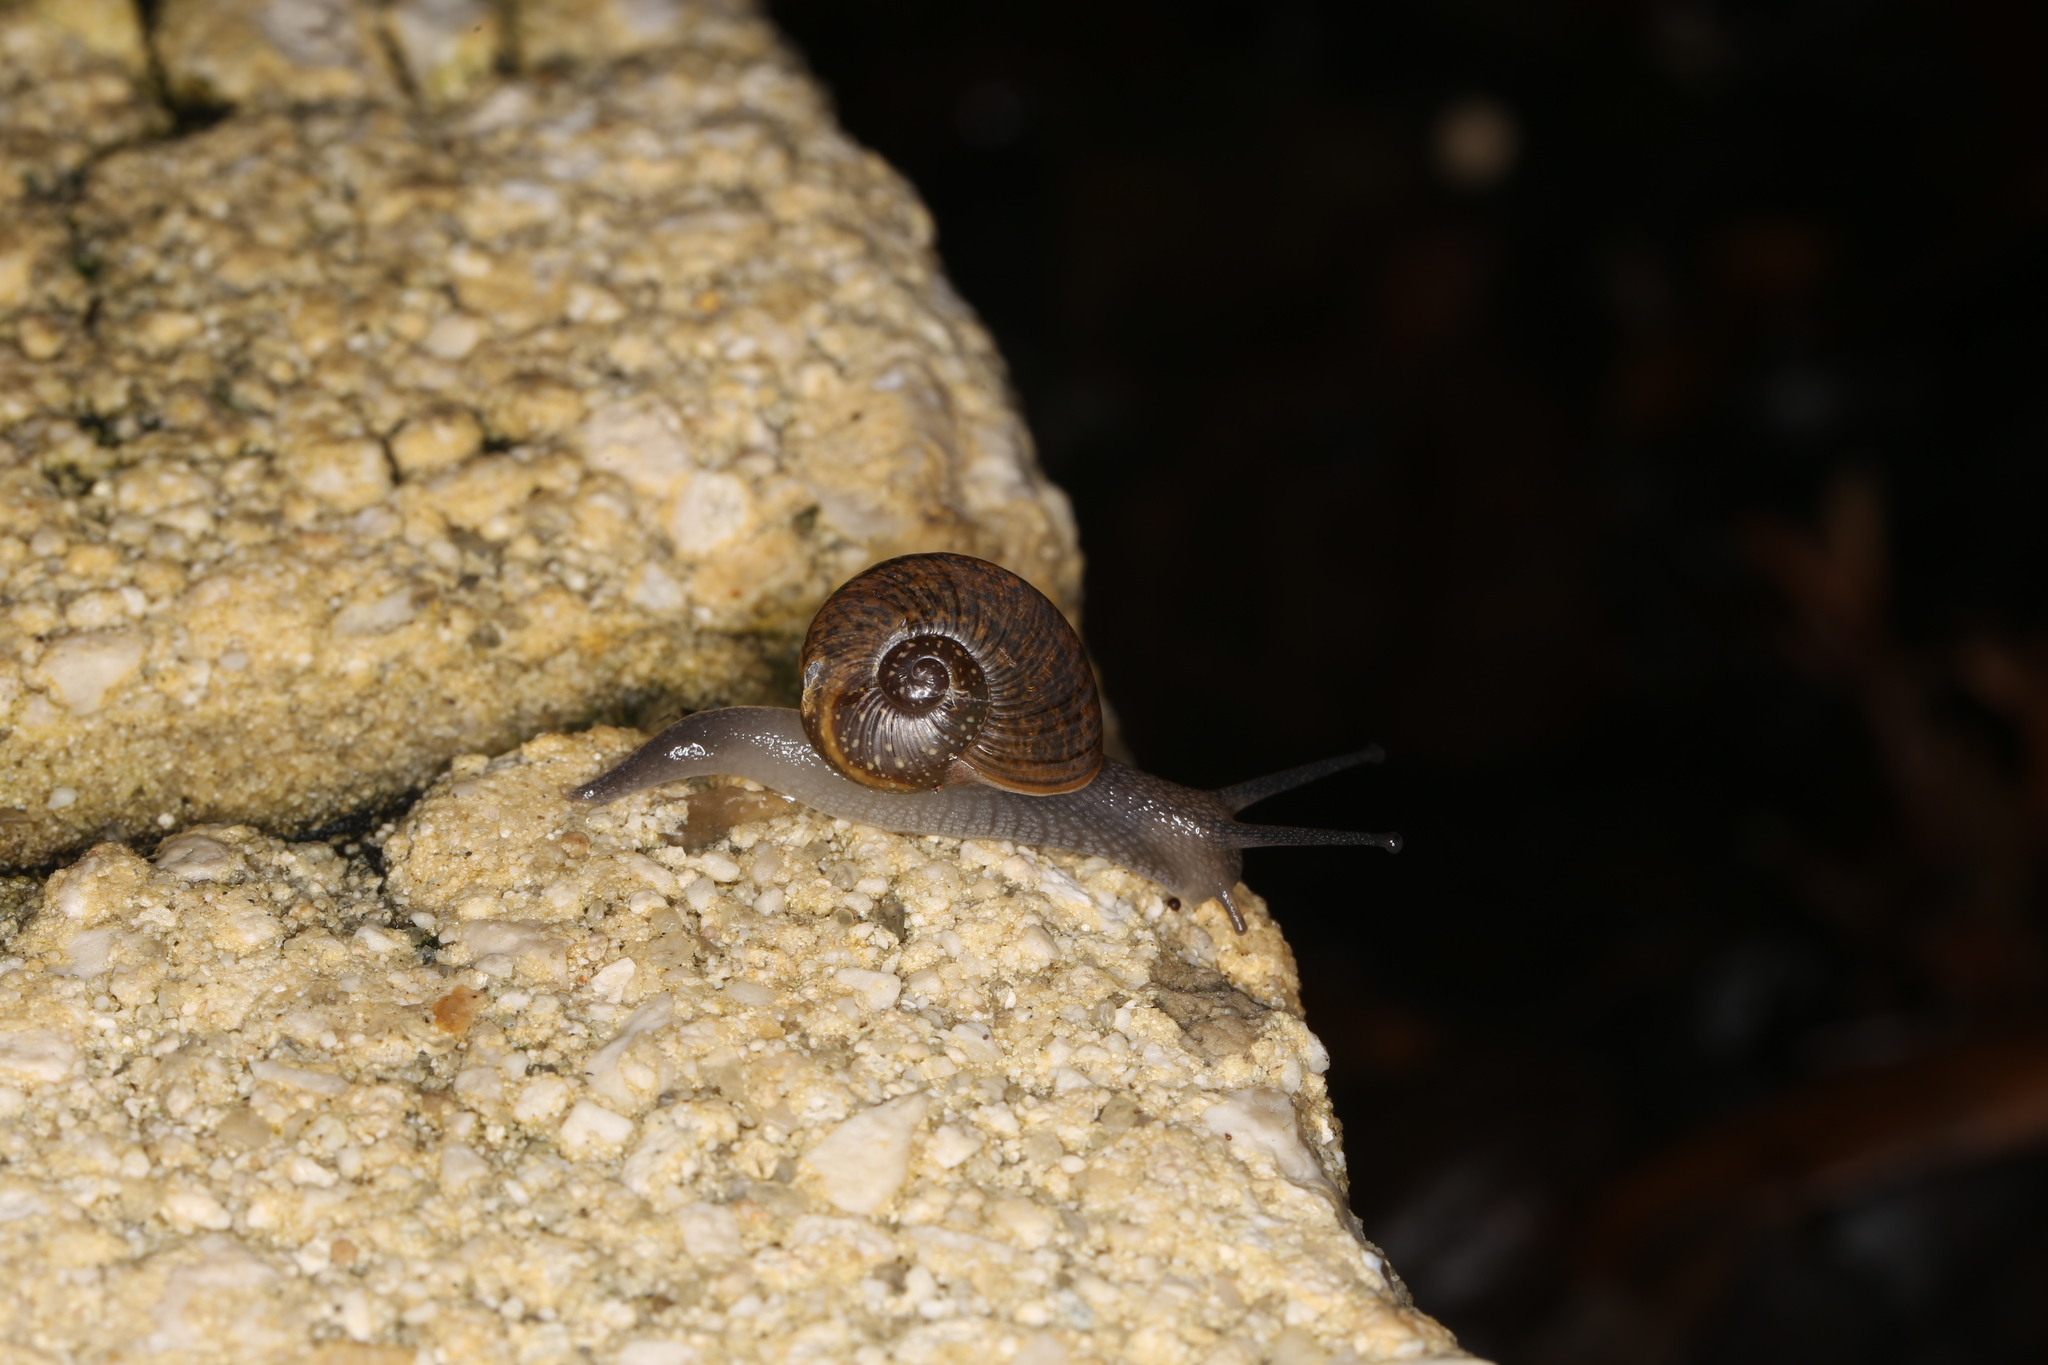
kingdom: Animalia
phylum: Mollusca
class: Gastropoda
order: Stylommatophora
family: Zachrysiidae
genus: Zachrysia
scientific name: Zachrysia provisoria
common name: Garden zachrysia
